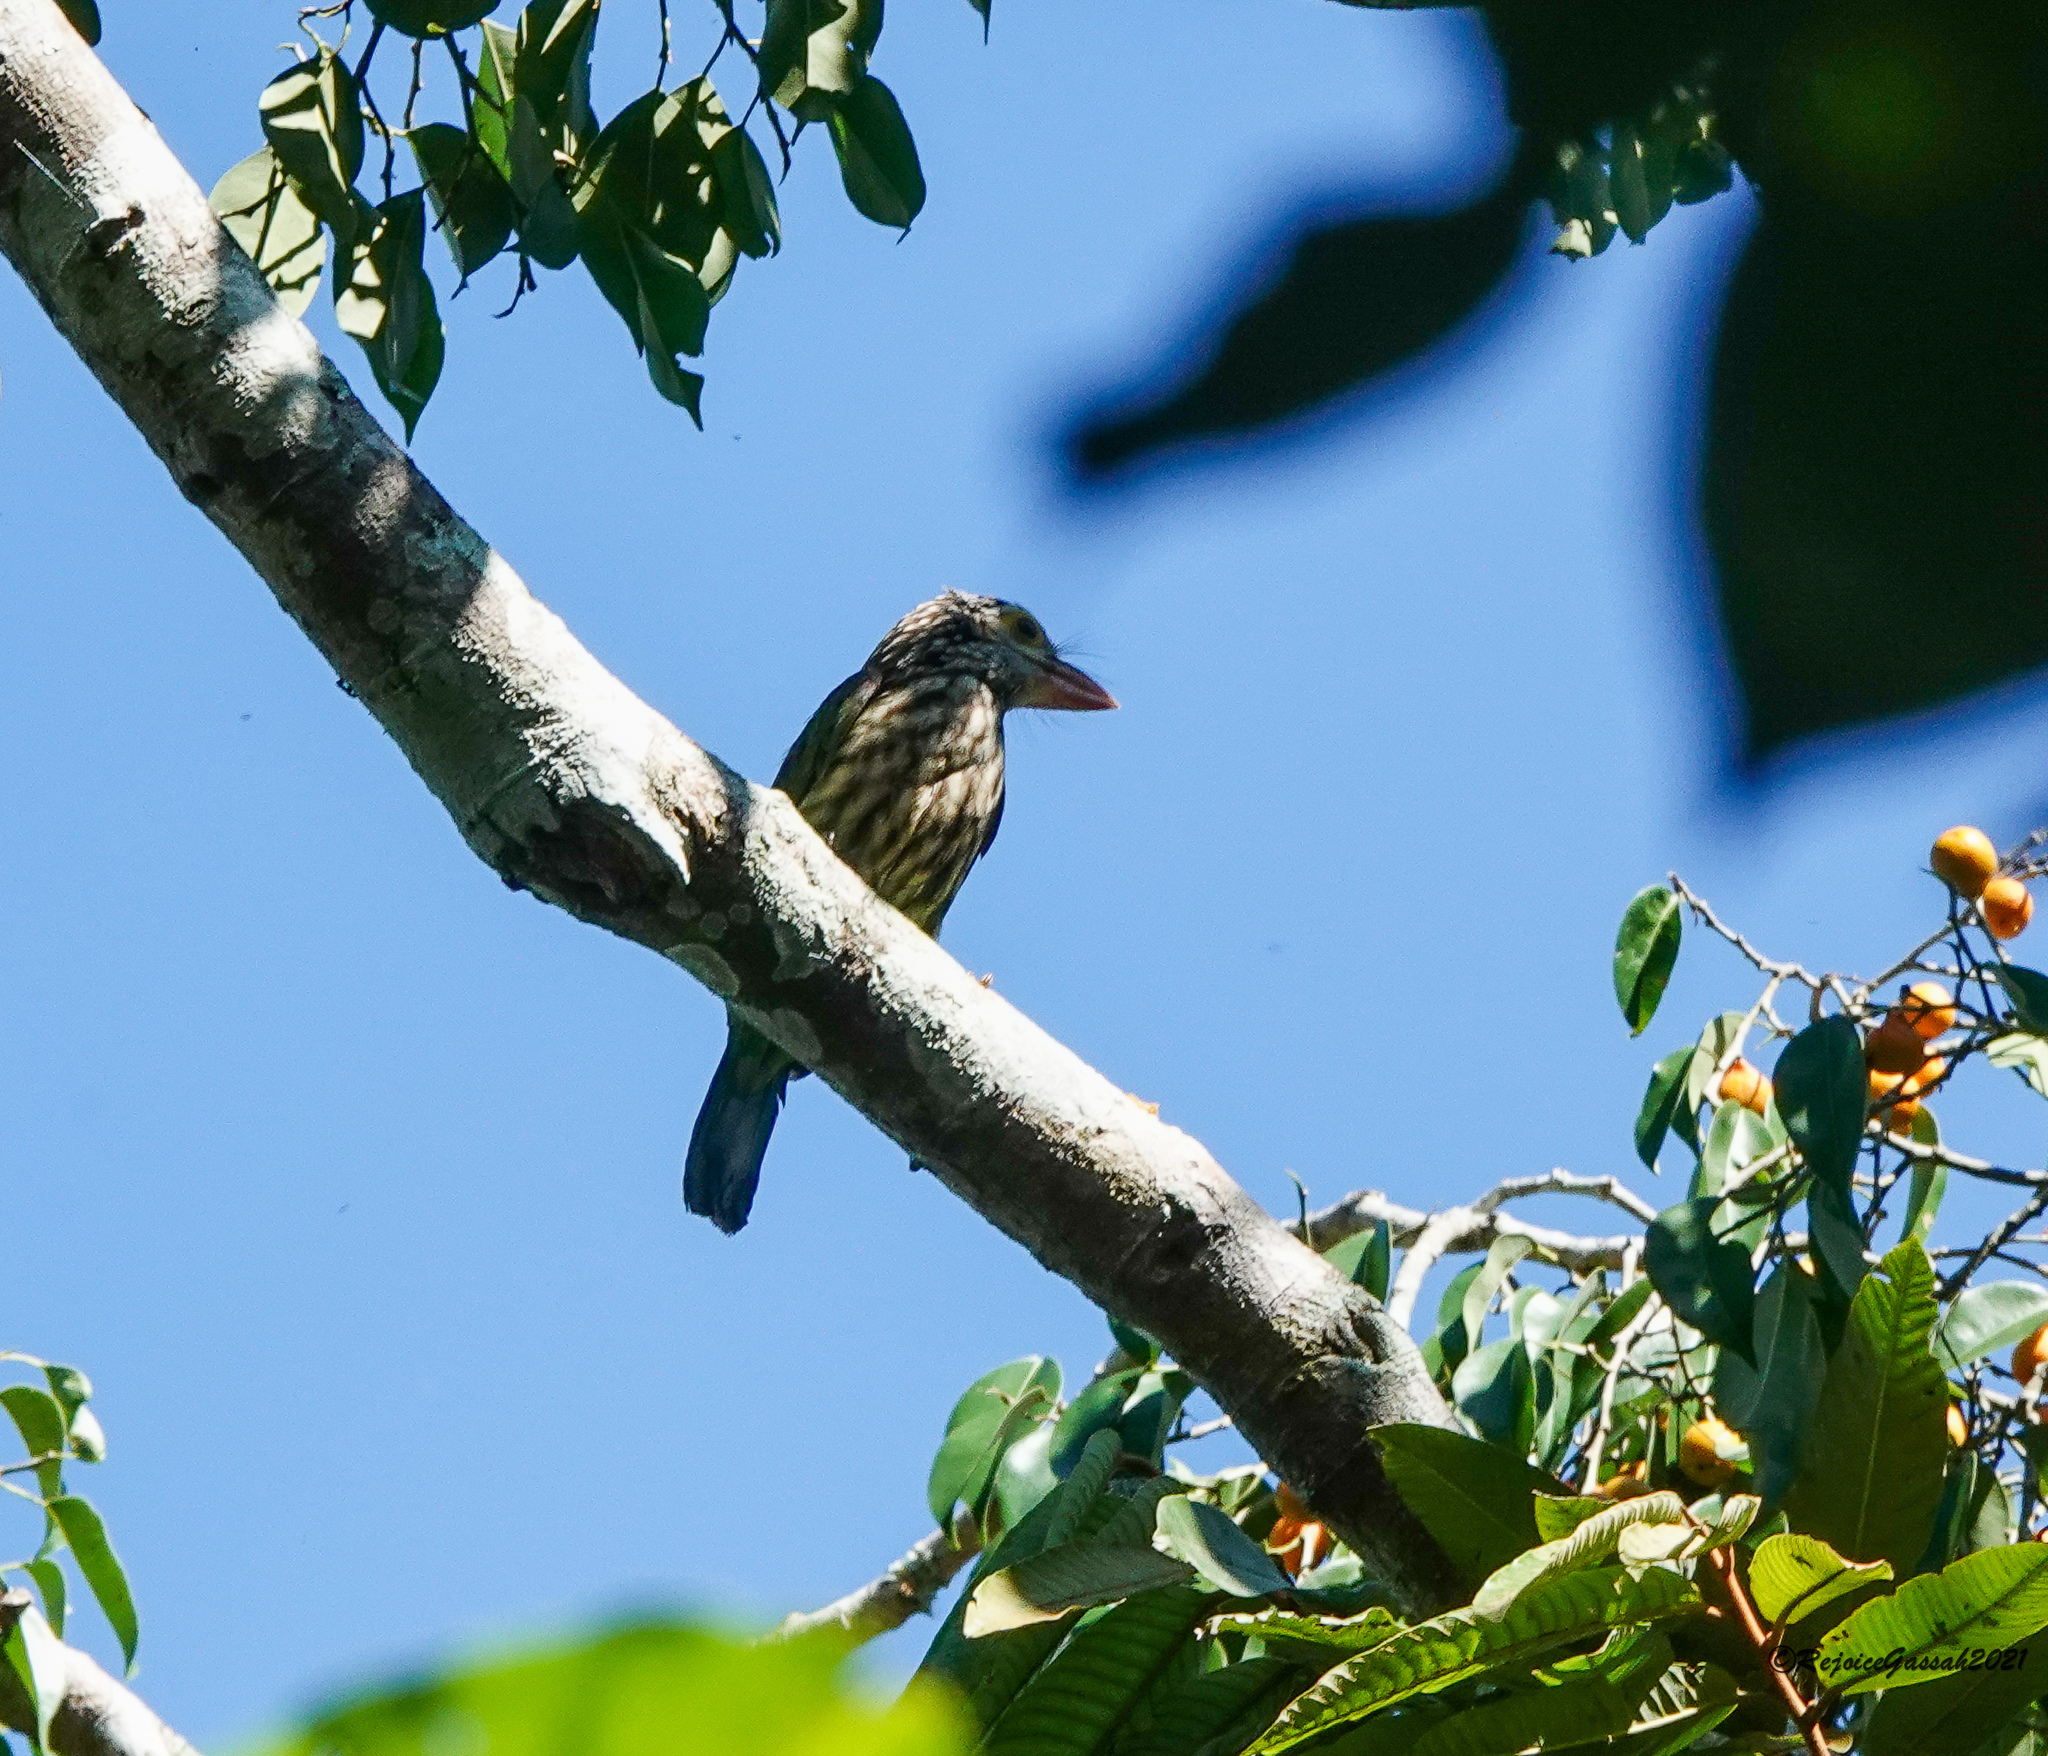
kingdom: Animalia
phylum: Chordata
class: Aves
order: Piciformes
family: Megalaimidae
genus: Psilopogon
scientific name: Psilopogon lineatus
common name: Lineated barbet
